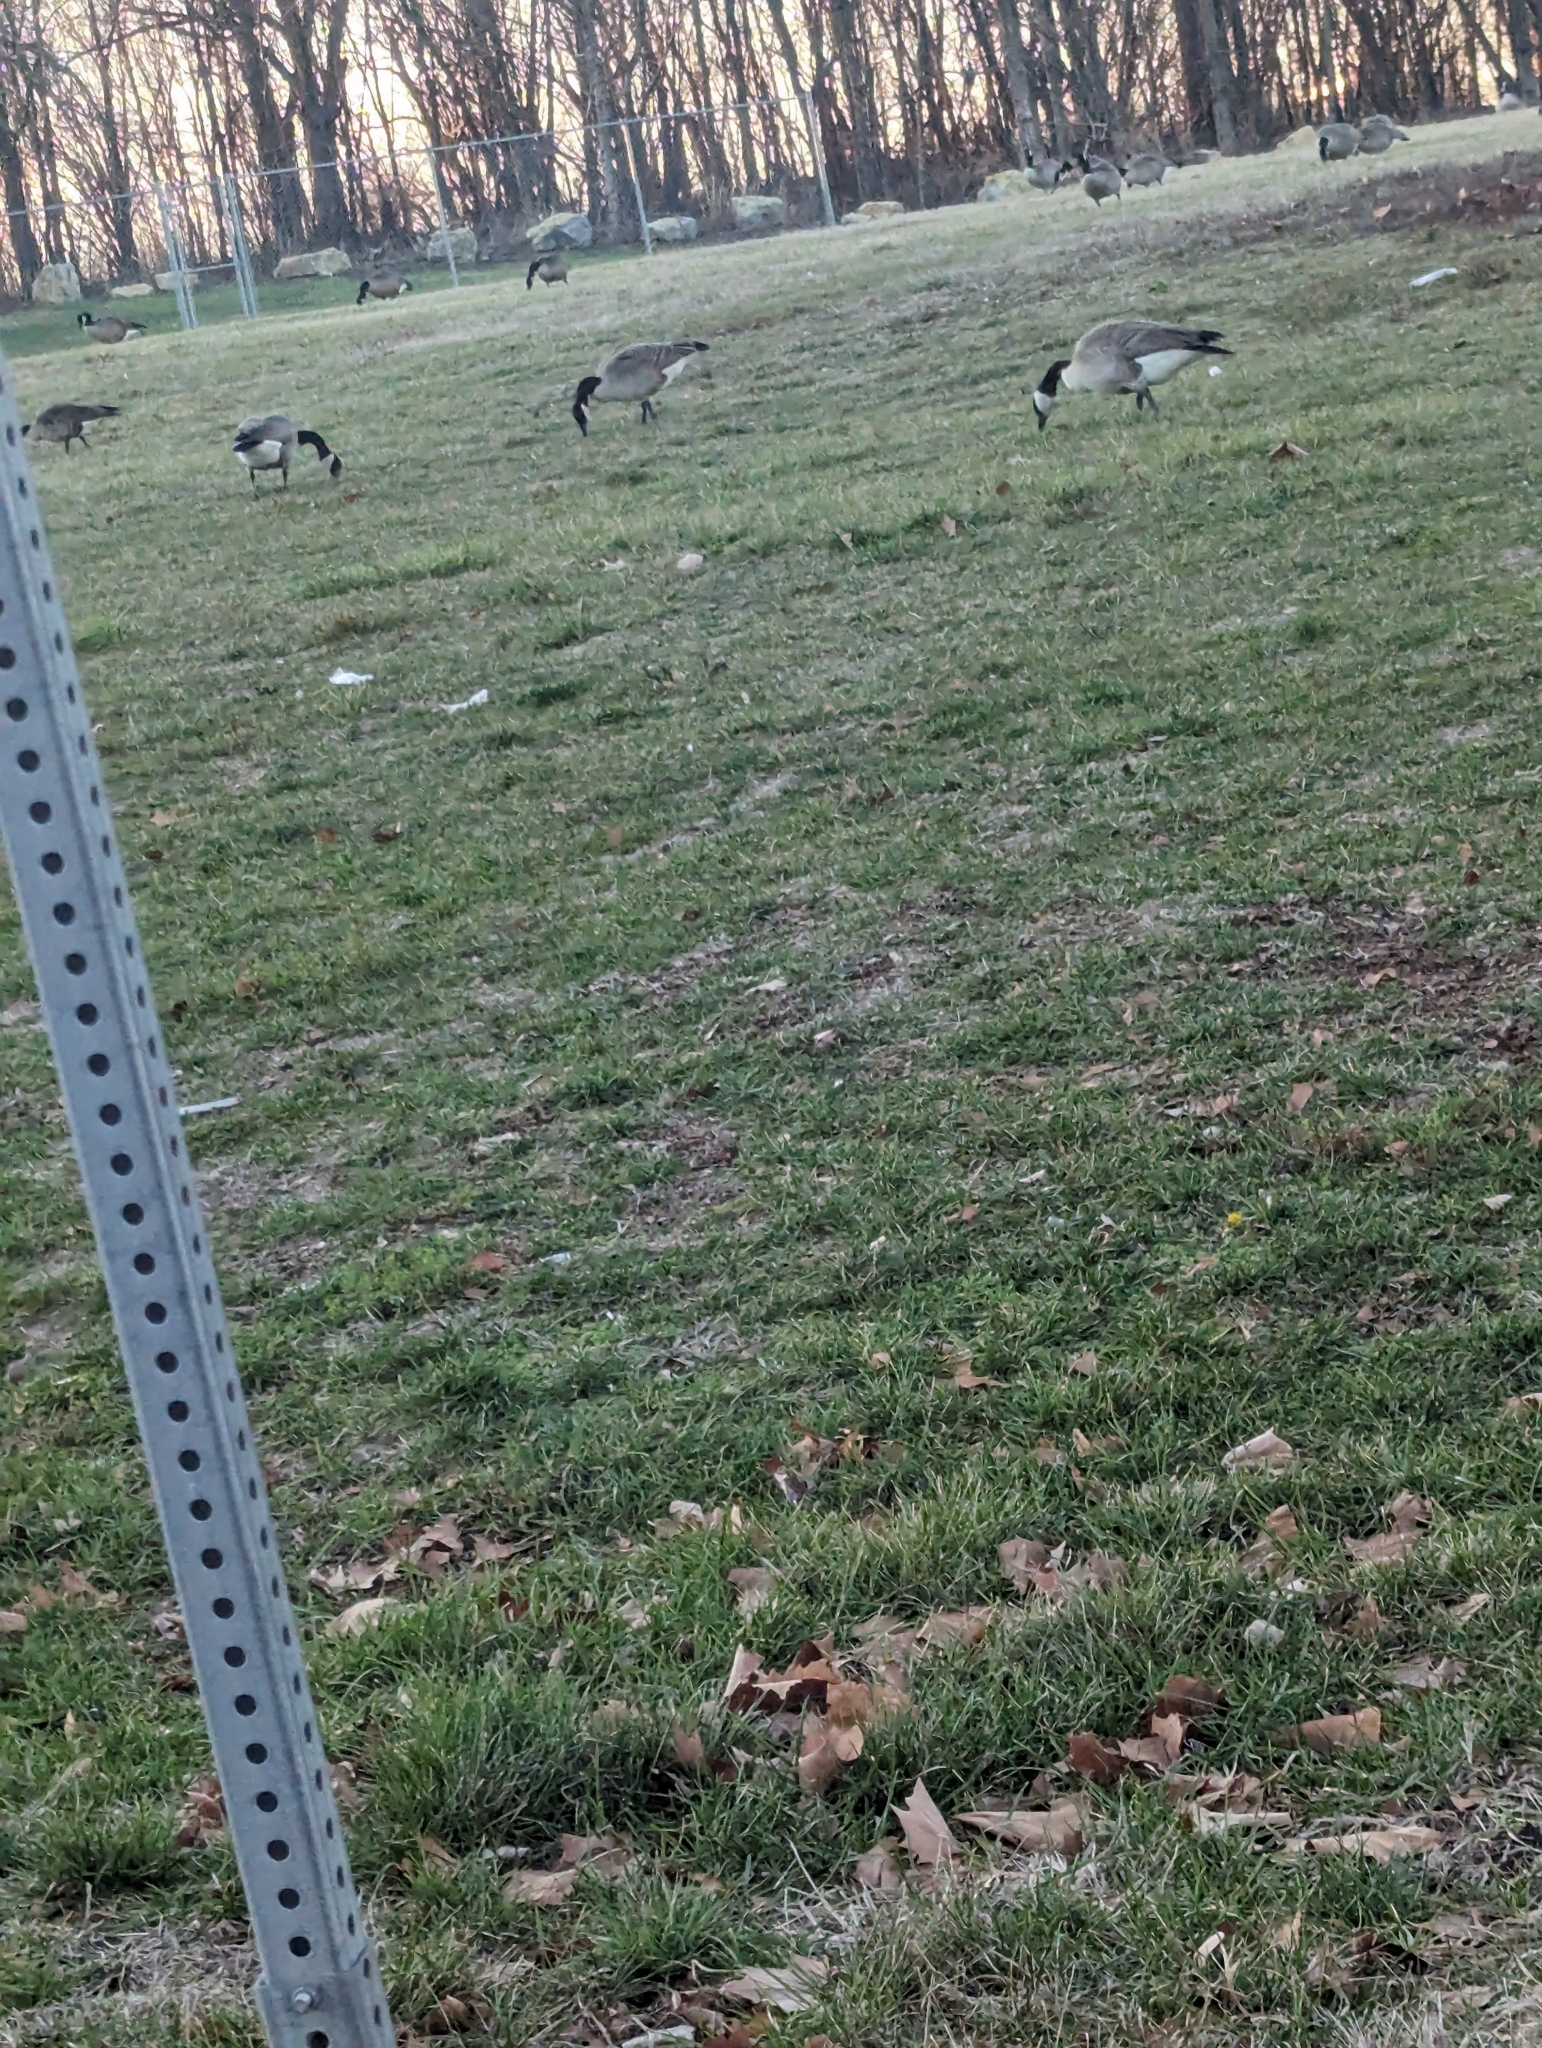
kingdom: Animalia
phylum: Chordata
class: Aves
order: Anseriformes
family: Anatidae
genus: Branta
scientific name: Branta canadensis
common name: Canada goose
